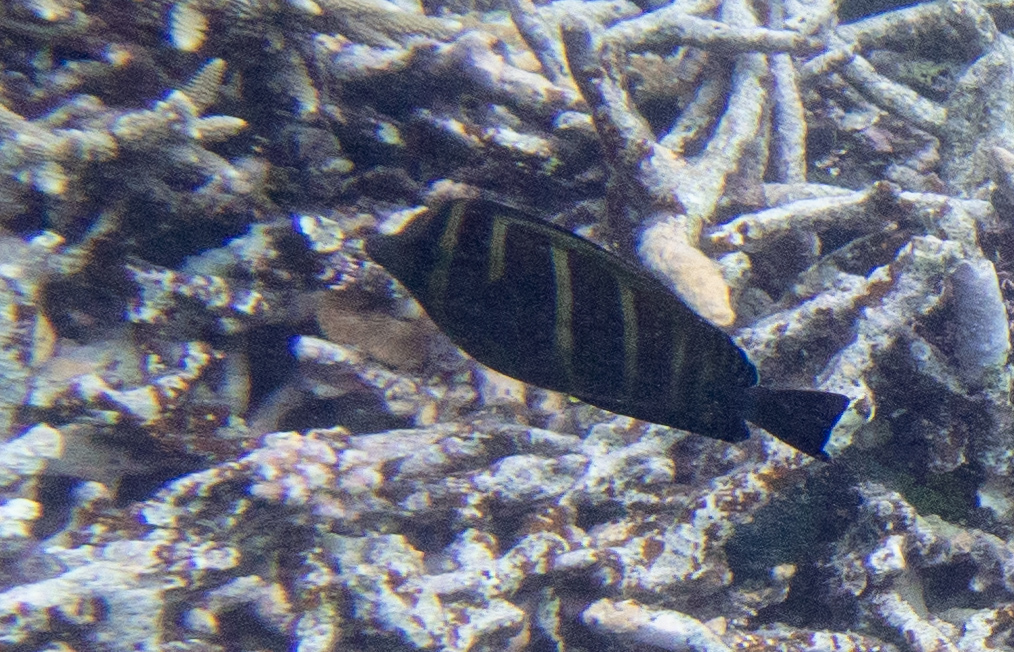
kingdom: Animalia
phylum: Chordata
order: Perciformes
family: Acanthuridae
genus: Zebrasoma
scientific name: Zebrasoma veliferum
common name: Sailfin surgeonfish
